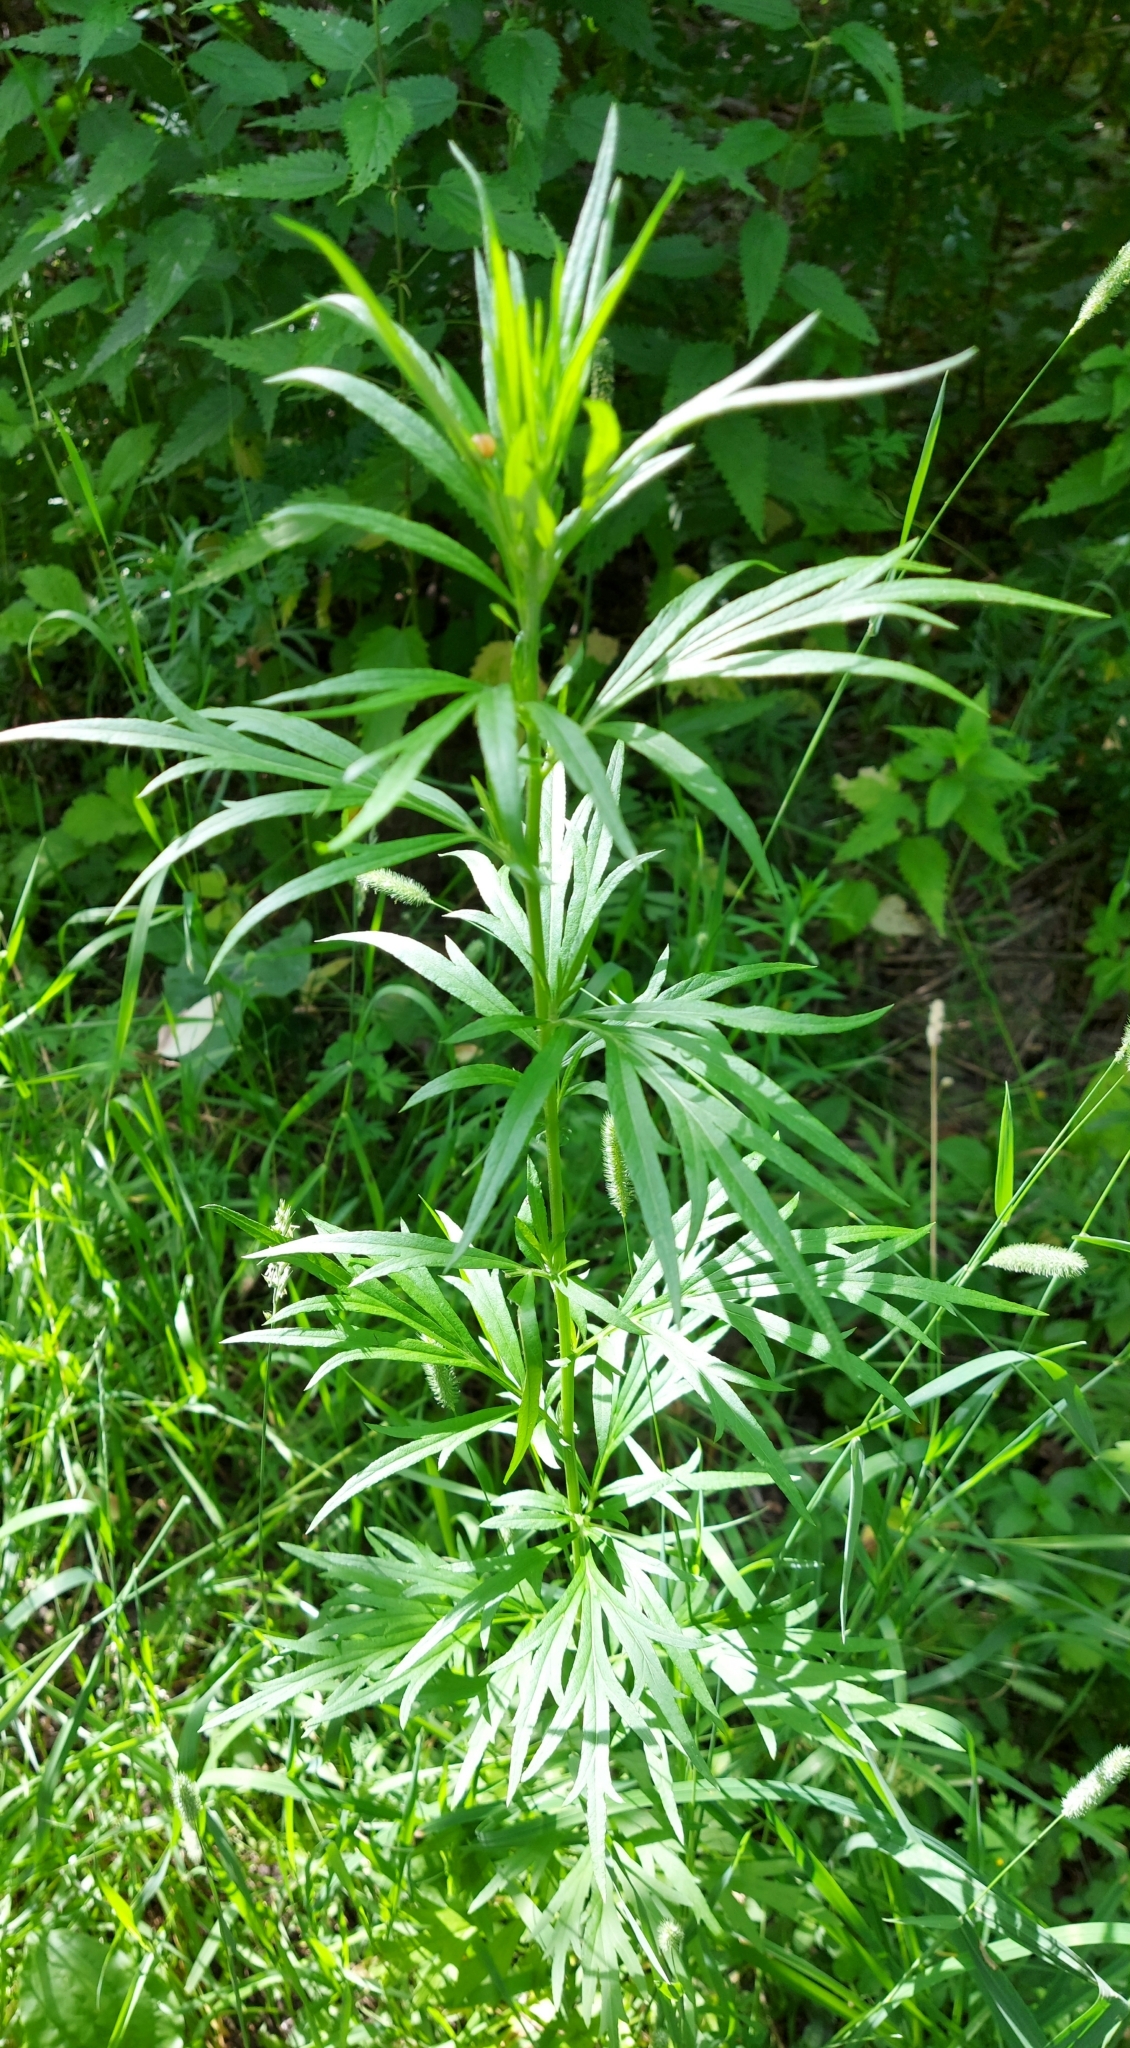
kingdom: Plantae
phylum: Tracheophyta
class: Magnoliopsida
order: Asterales
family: Asteraceae
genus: Artemisia
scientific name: Artemisia vulgaris
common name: Mugwort
